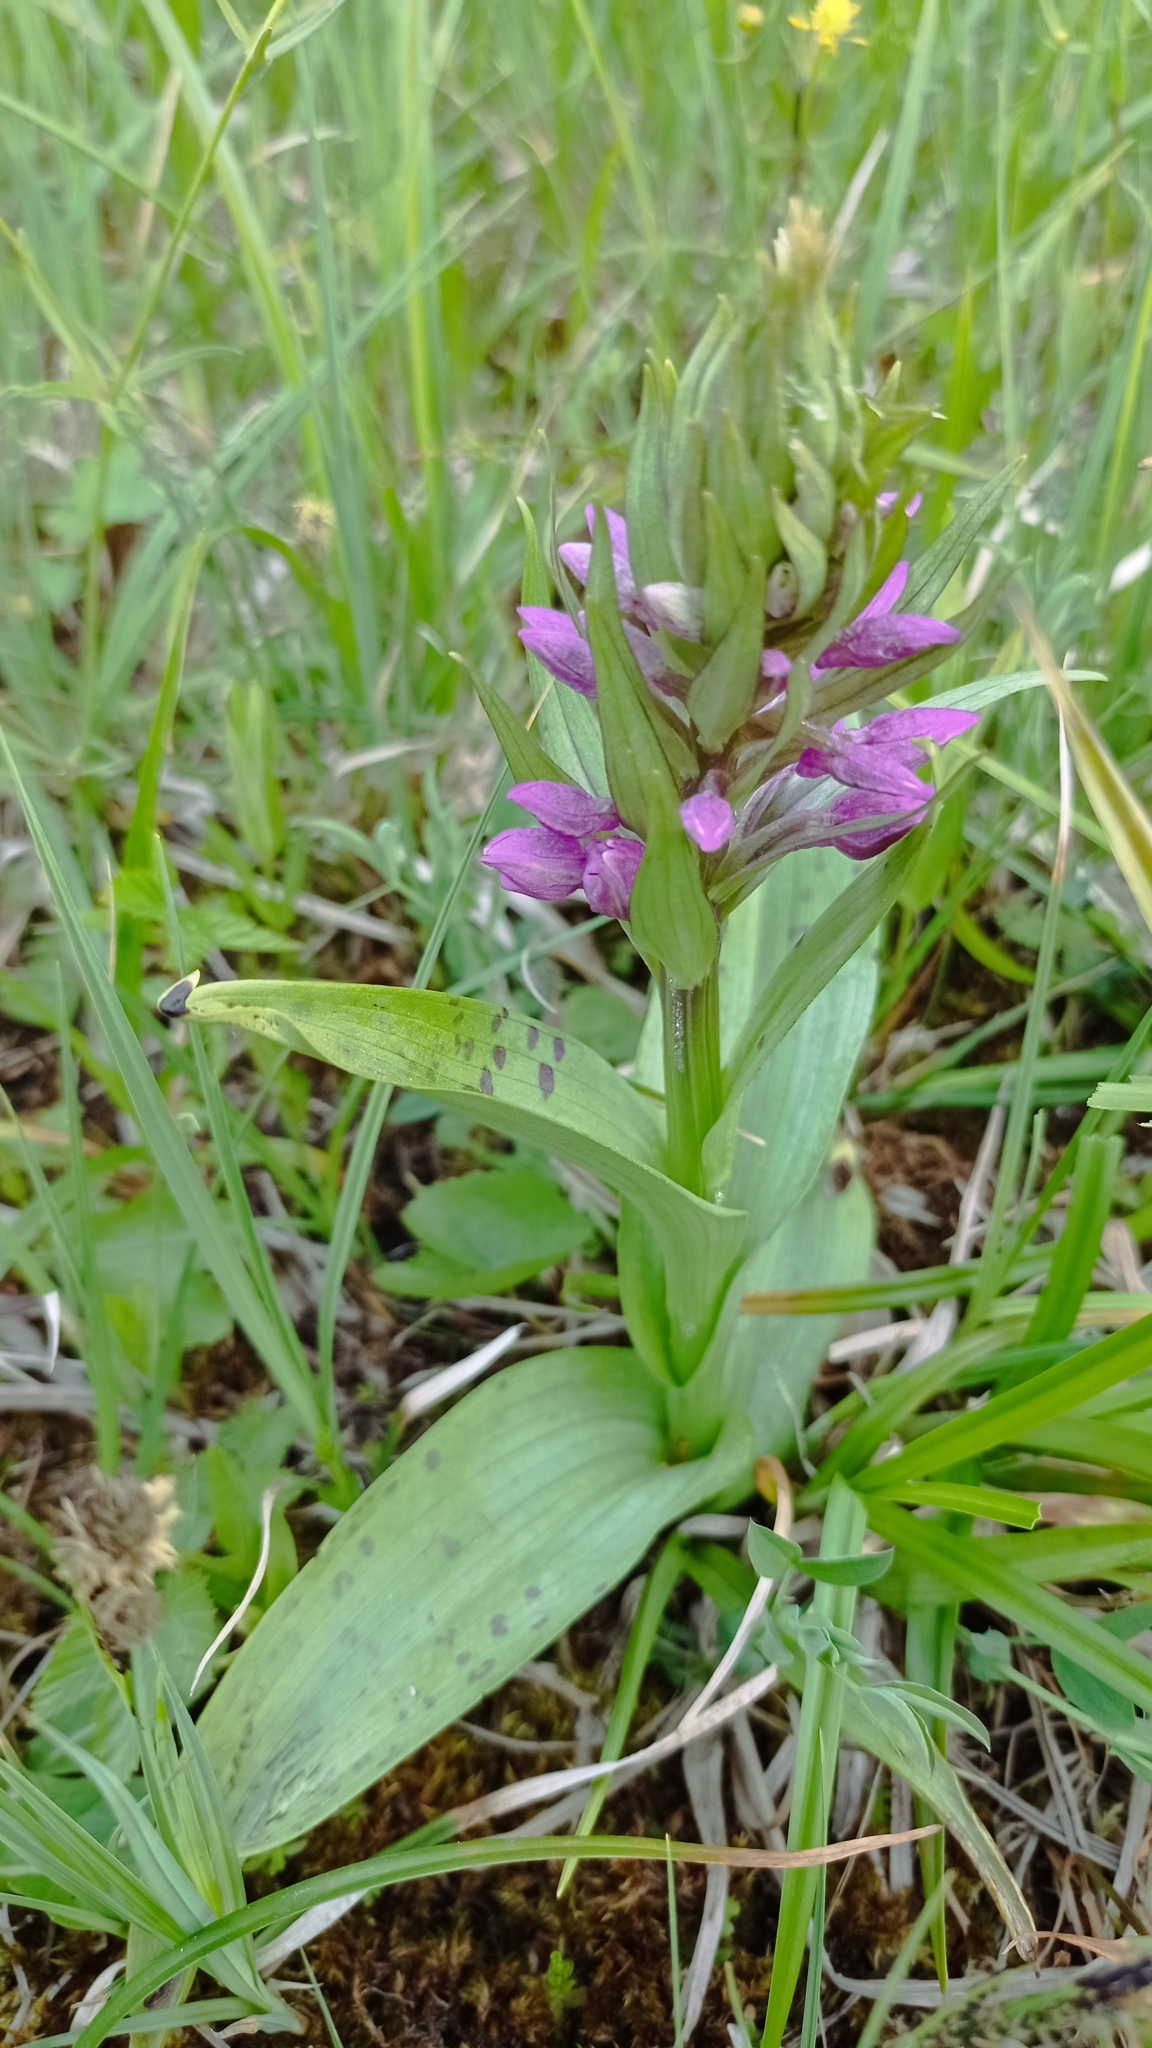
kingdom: Plantae
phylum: Tracheophyta
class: Liliopsida
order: Asparagales
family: Orchidaceae
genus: Dactylorhiza
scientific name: Dactylorhiza majalis
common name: Marsh orchid
